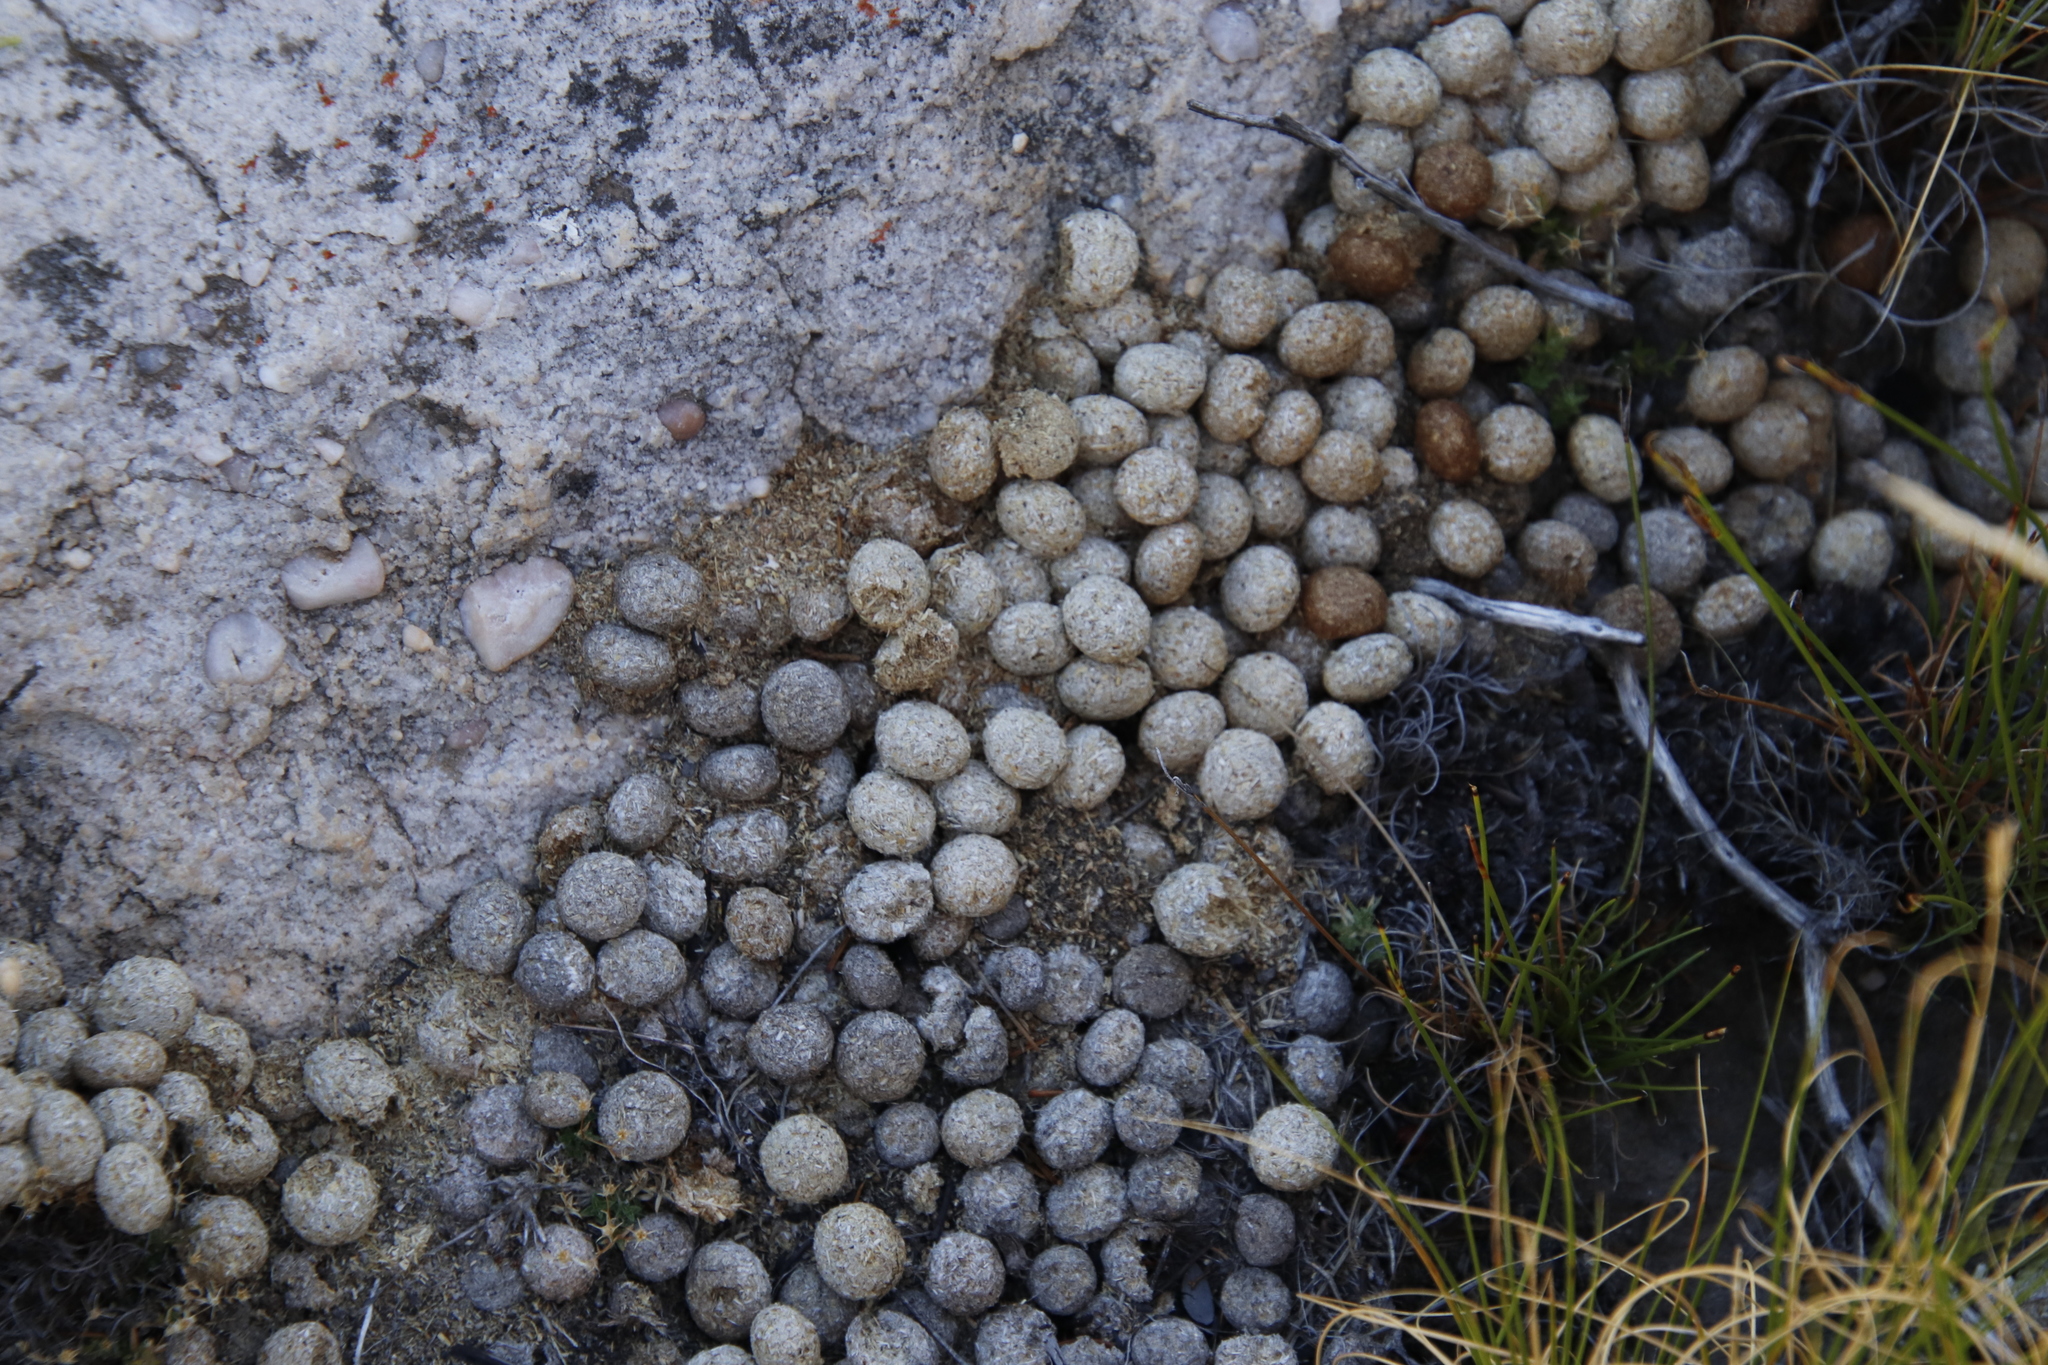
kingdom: Animalia
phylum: Chordata
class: Mammalia
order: Lagomorpha
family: Leporidae
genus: Pronolagus
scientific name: Pronolagus saundersiae
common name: Hewitt's red rock hare
